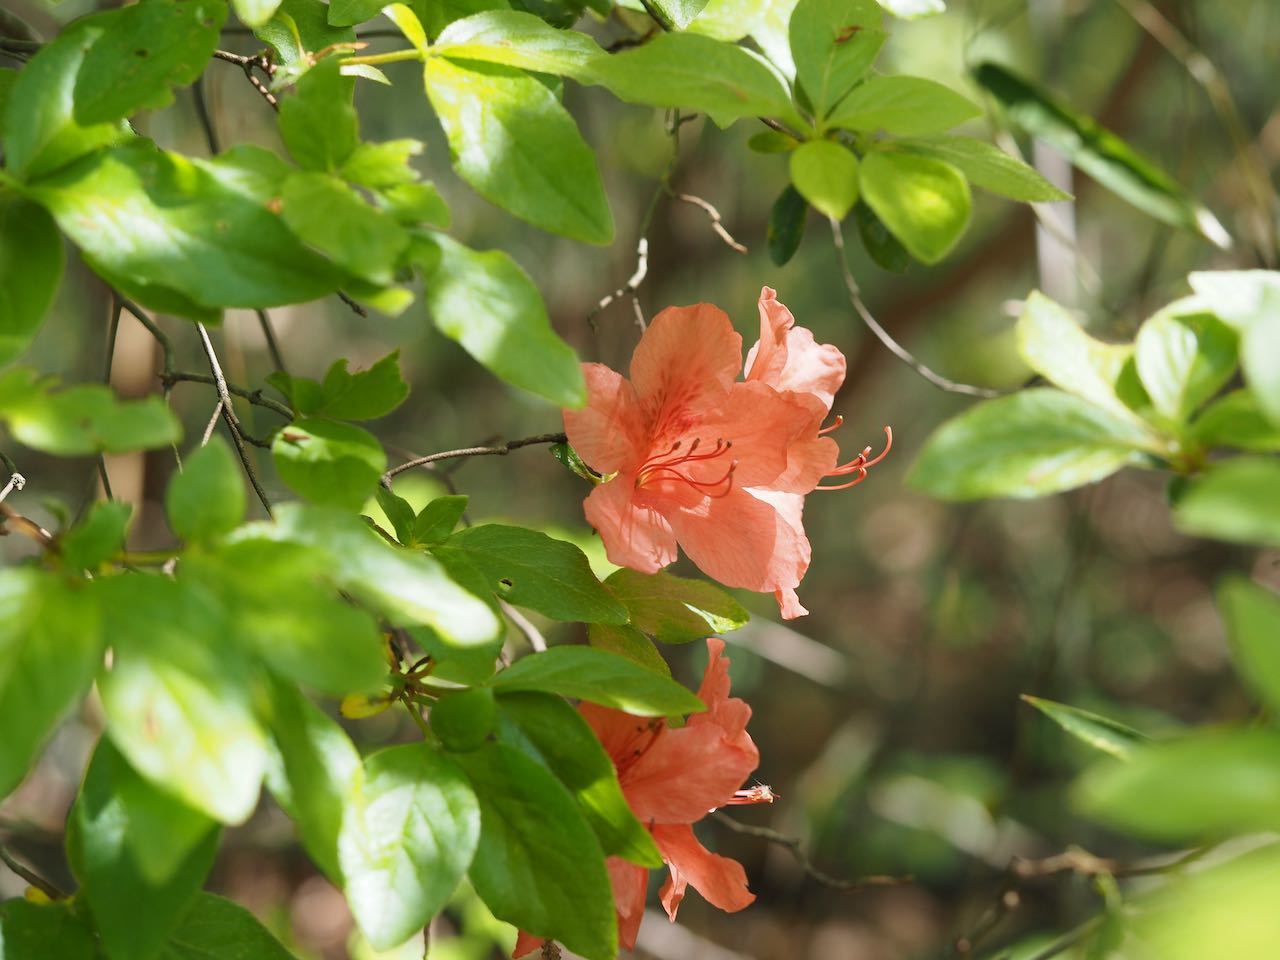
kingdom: Plantae
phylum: Tracheophyta
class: Magnoliopsida
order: Ericales
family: Ericaceae
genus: Rhododendron
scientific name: Rhododendron kaempferi
